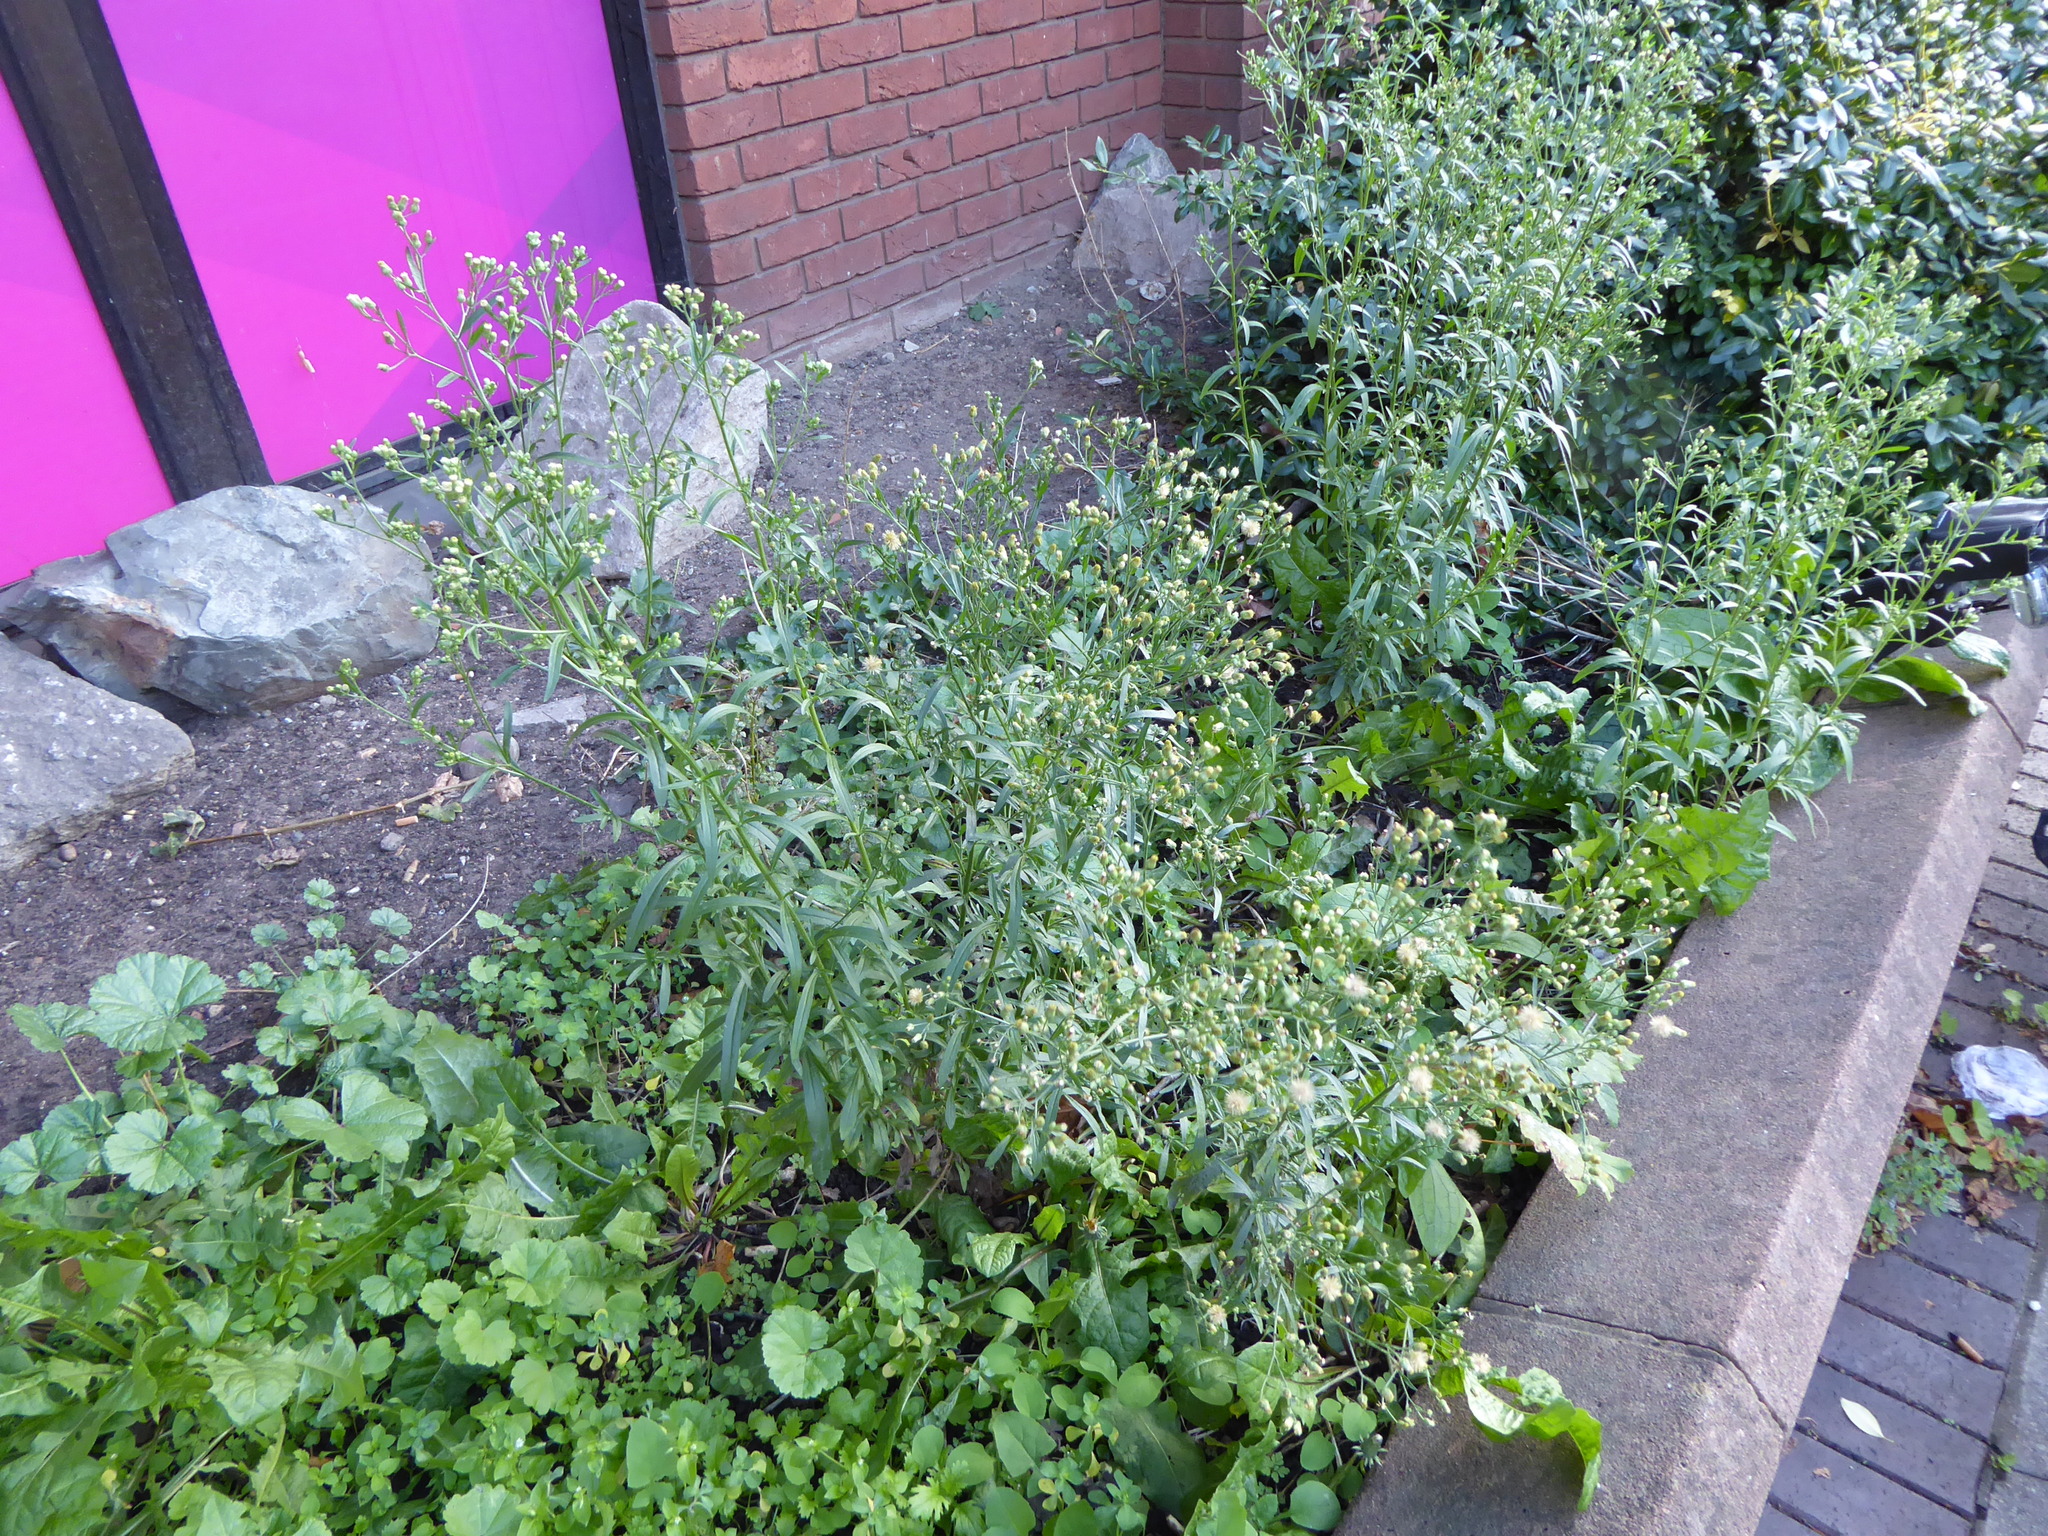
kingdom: Plantae
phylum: Tracheophyta
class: Magnoliopsida
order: Asterales
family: Asteraceae
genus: Erigeron
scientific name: Erigeron sumatrensis
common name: Daisy
